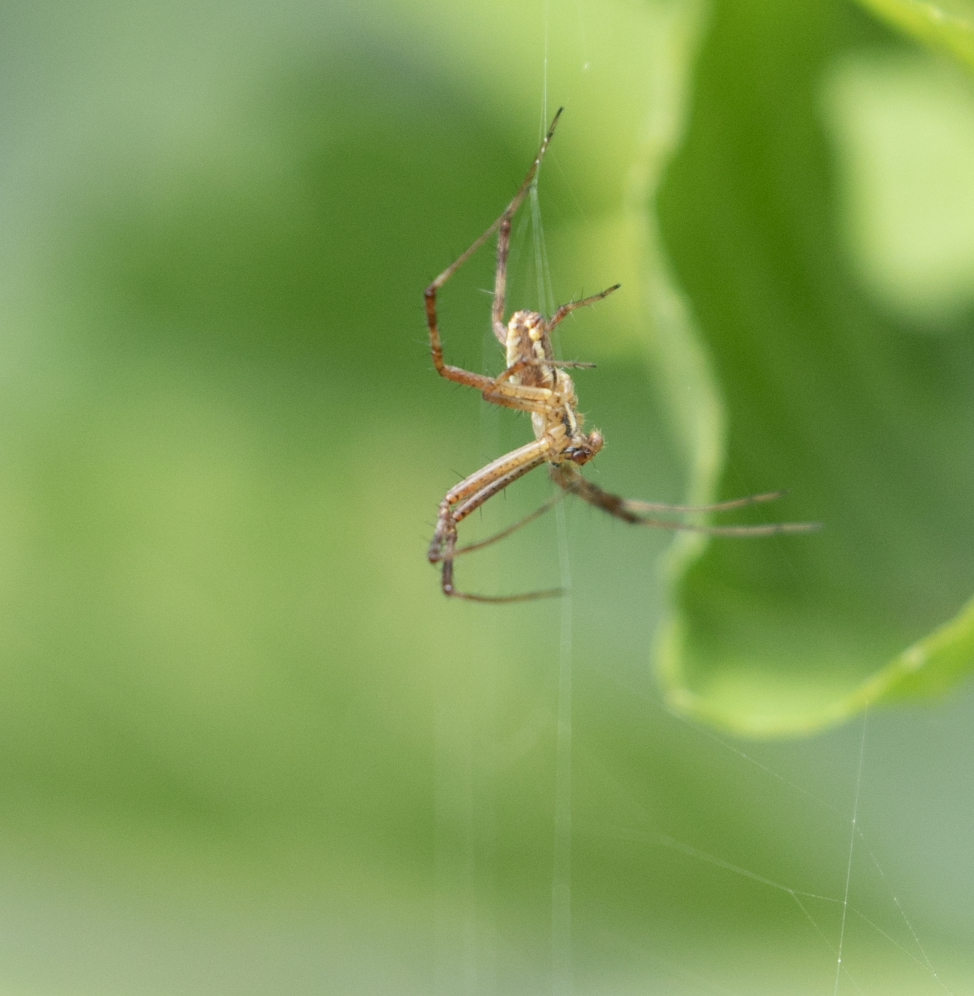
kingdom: Animalia
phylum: Arthropoda
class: Arachnida
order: Araneae
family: Araneidae
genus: Argiope
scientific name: Argiope bruennichi
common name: Wasp spider
